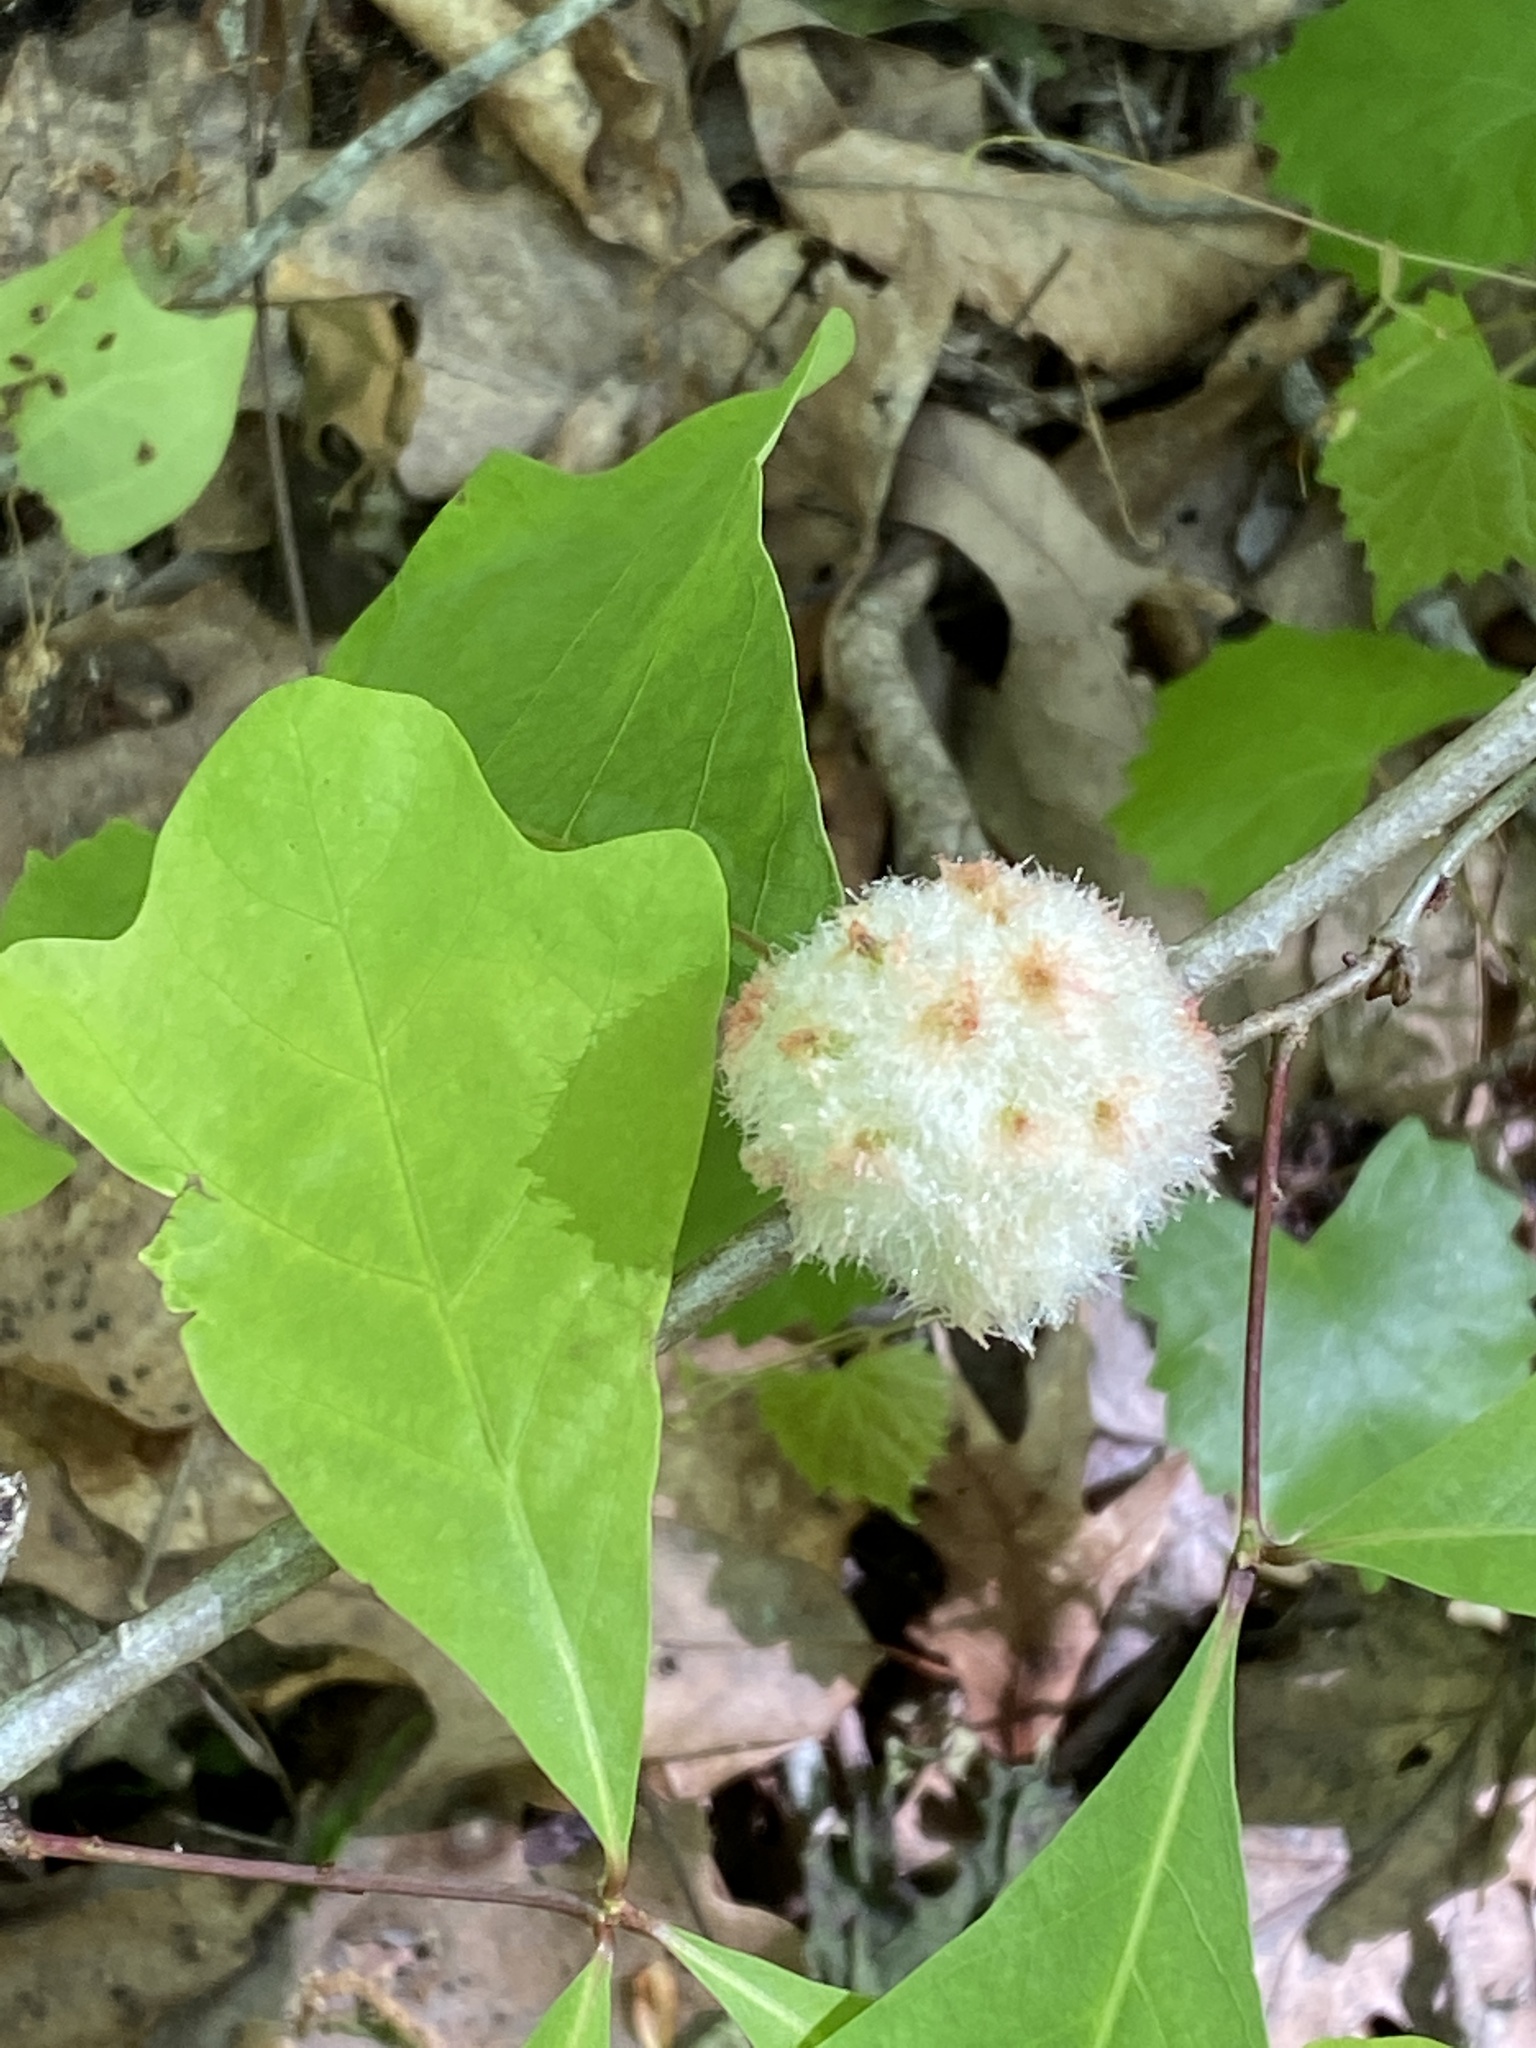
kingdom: Animalia
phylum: Arthropoda
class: Insecta
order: Hymenoptera
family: Cynipidae
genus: Callirhytis
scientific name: Callirhytis
